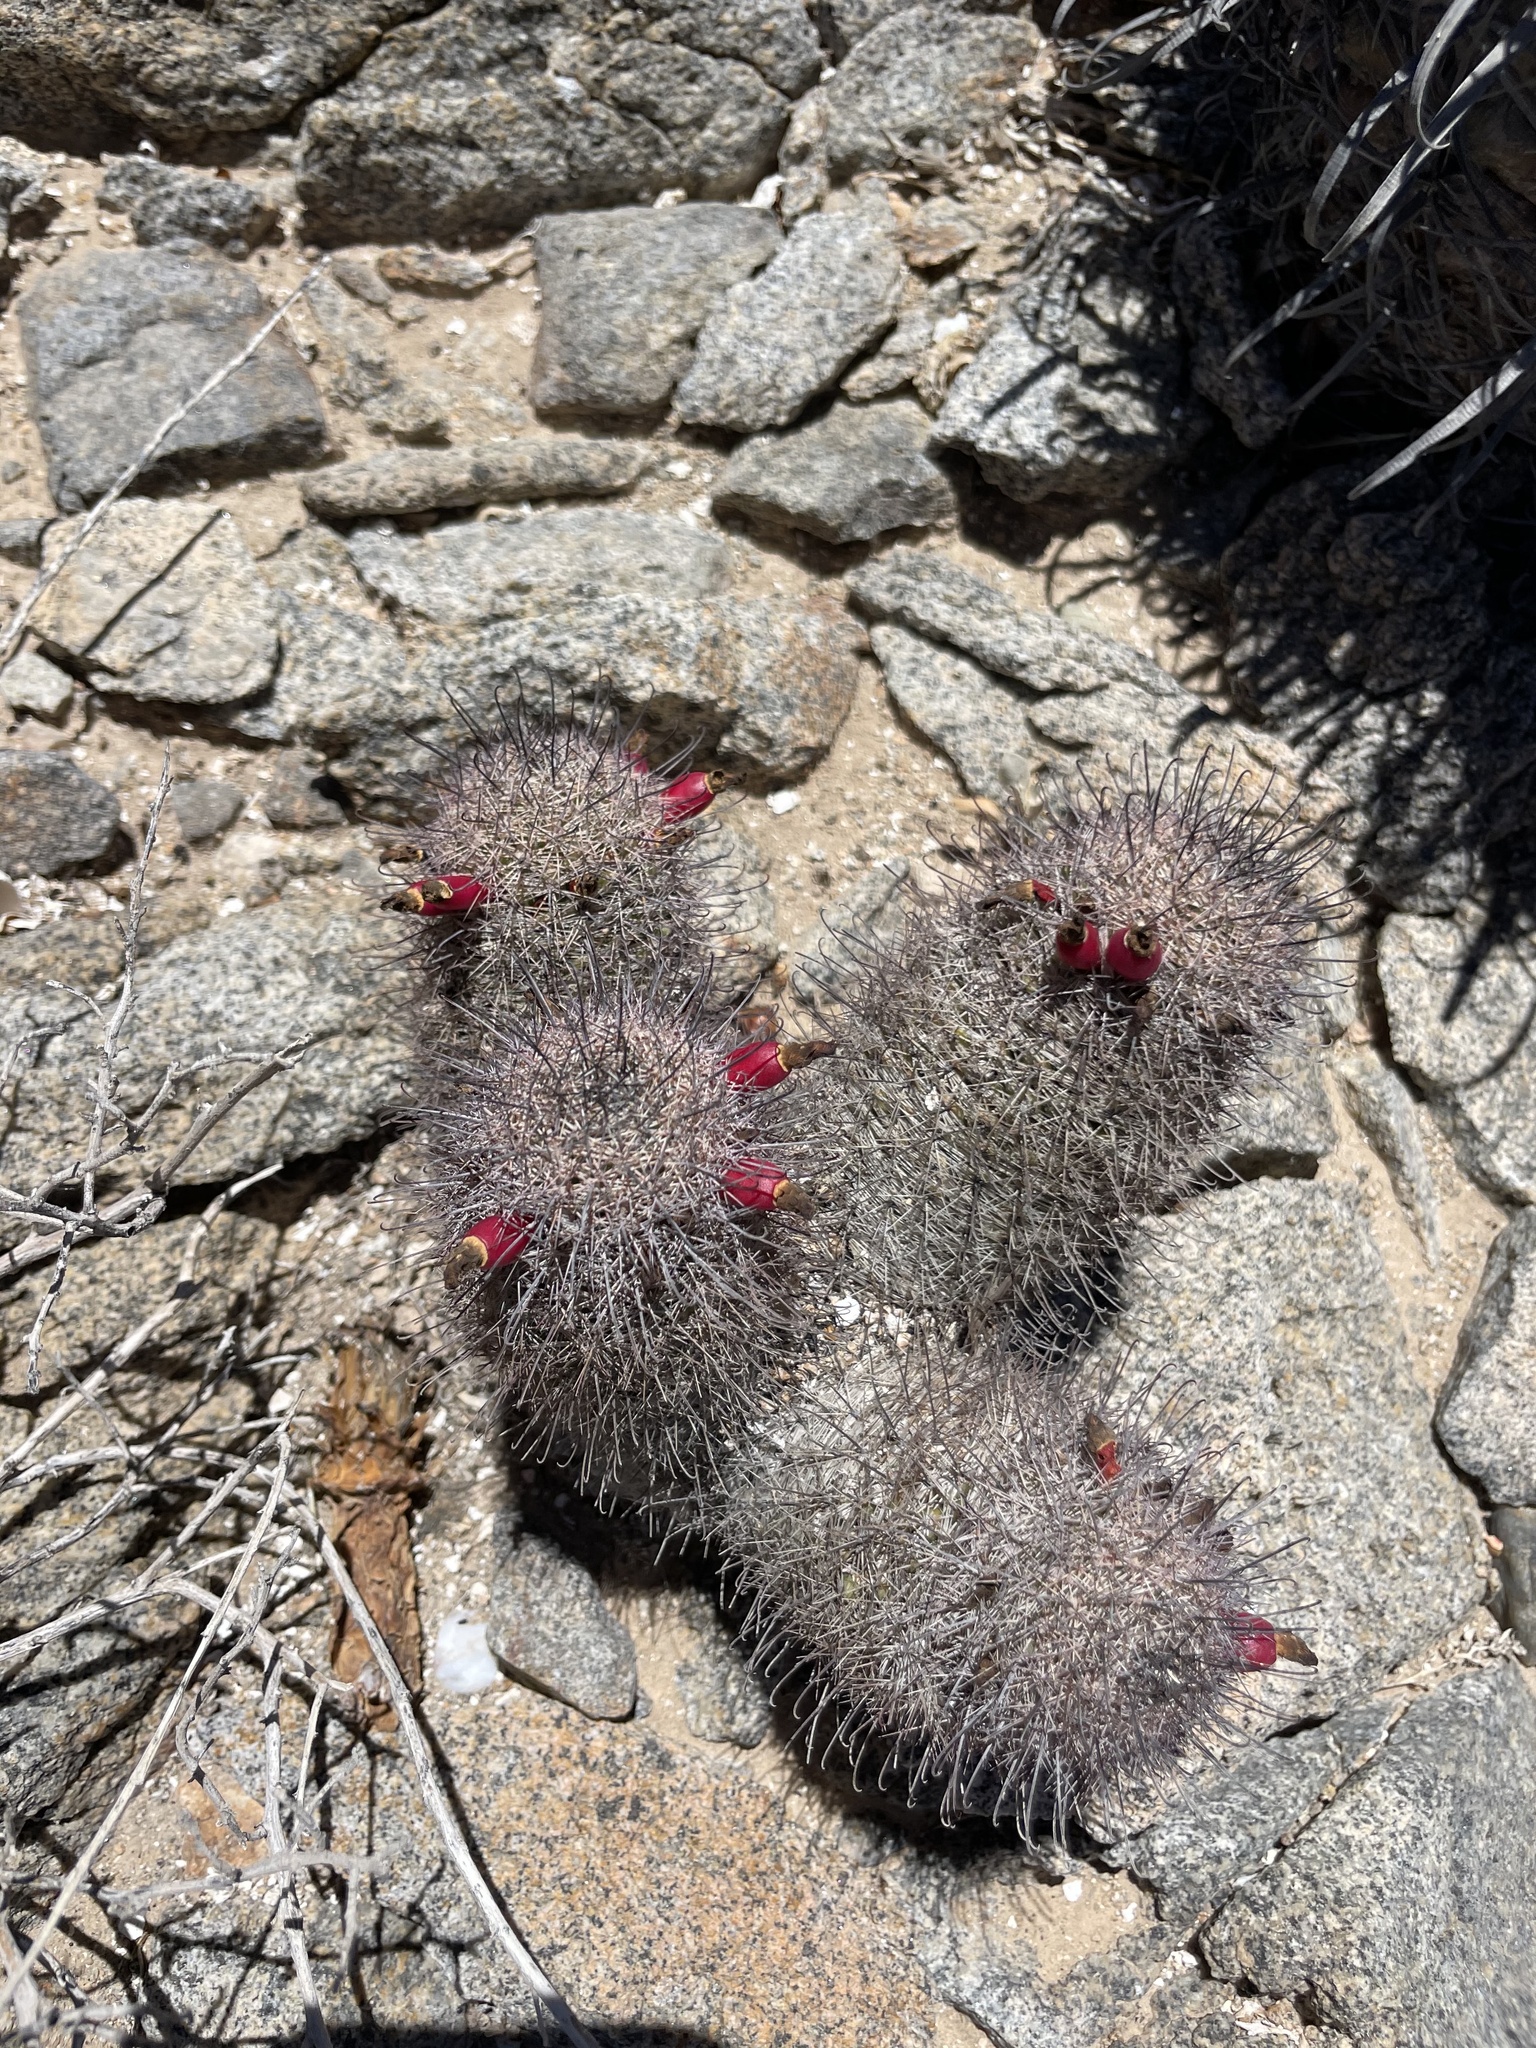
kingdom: Plantae
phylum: Tracheophyta
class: Magnoliopsida
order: Caryophyllales
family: Cactaceae
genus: Cochemiea
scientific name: Cochemiea angelensis
